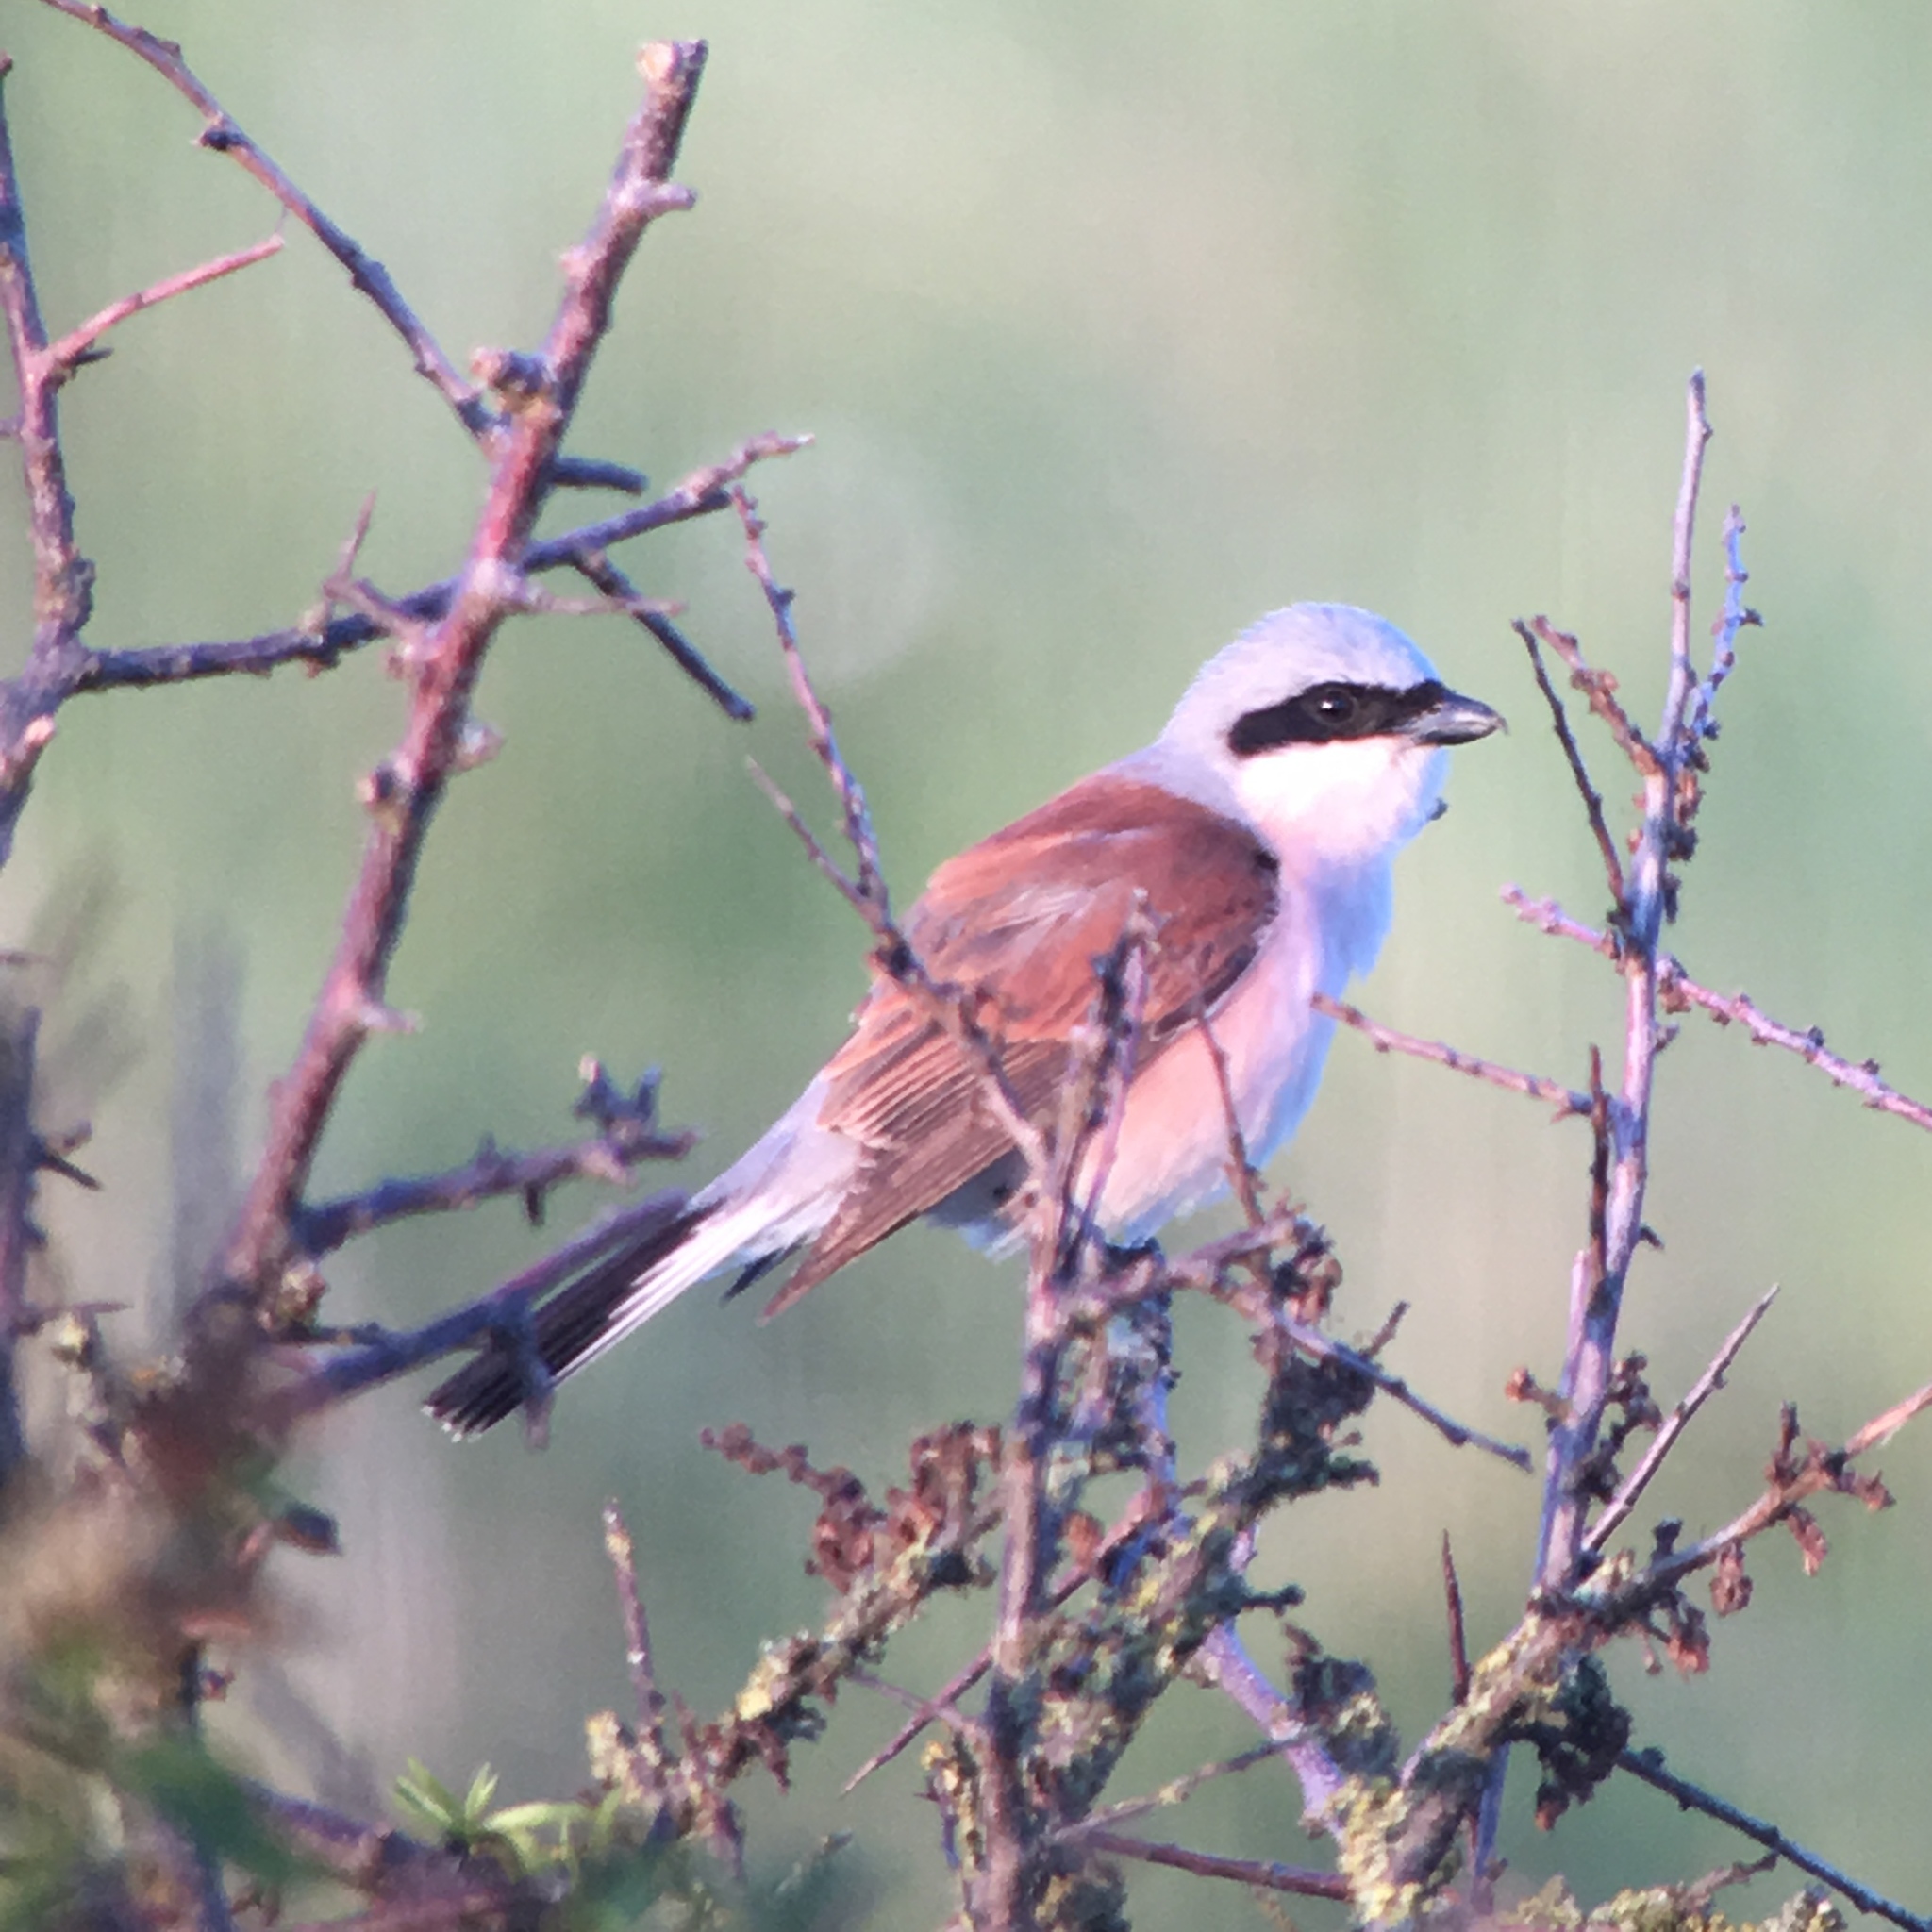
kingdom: Animalia
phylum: Chordata
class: Aves
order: Passeriformes
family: Laniidae
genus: Lanius
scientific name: Lanius collurio
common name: Red-backed shrike
